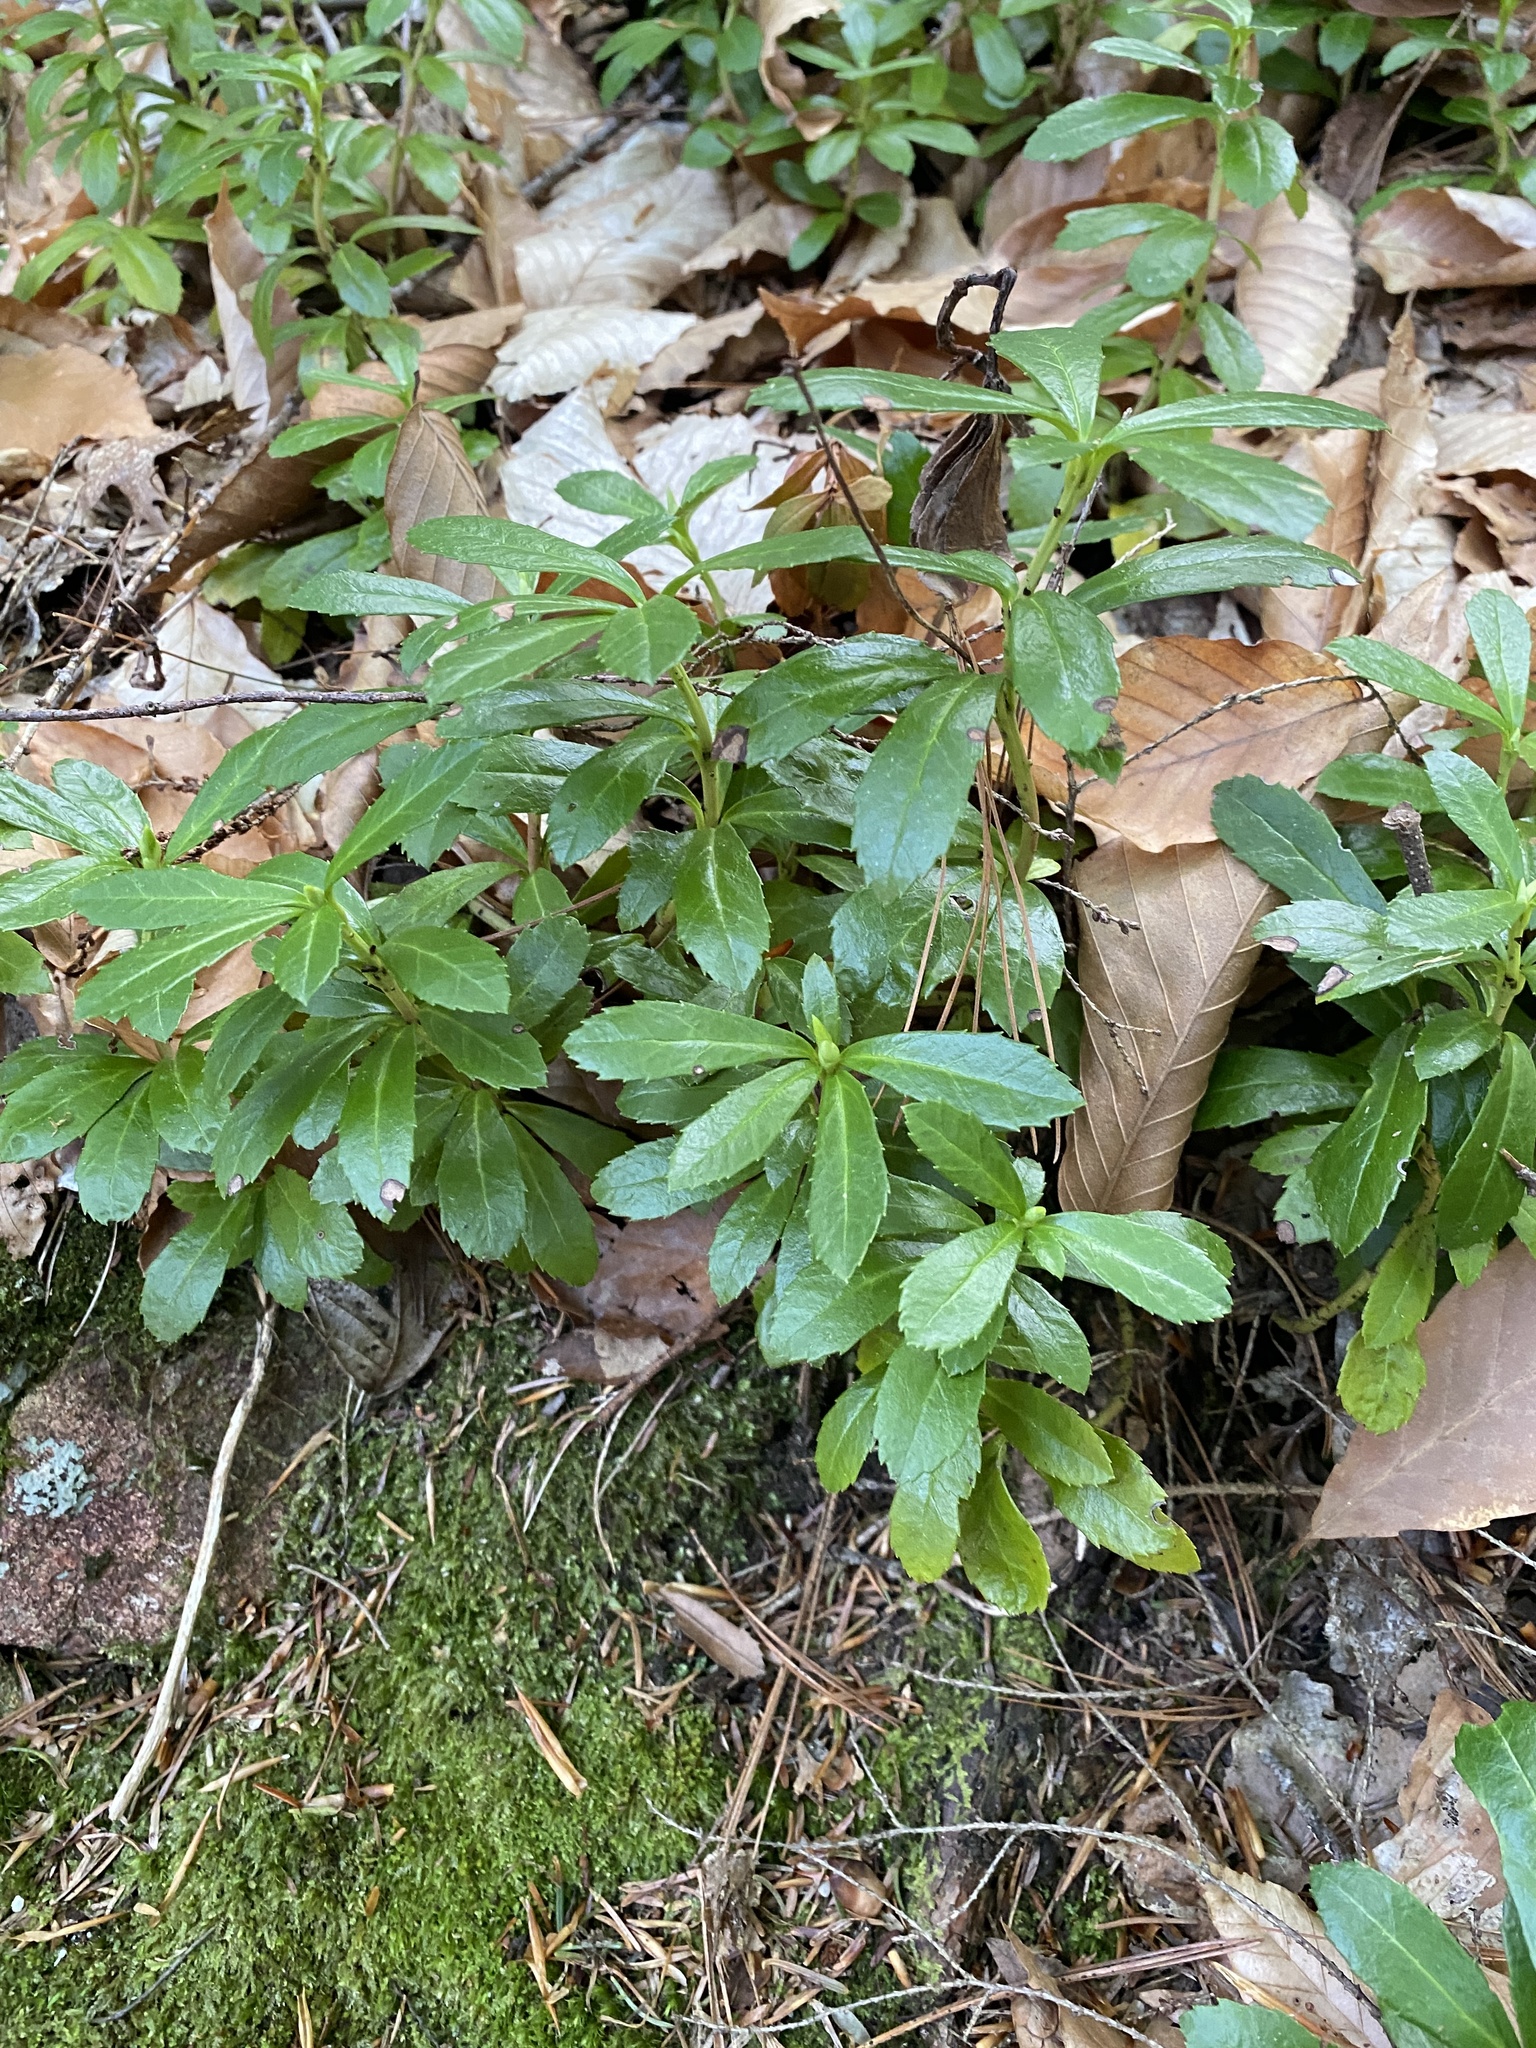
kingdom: Plantae
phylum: Tracheophyta
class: Magnoliopsida
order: Ericales
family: Ericaceae
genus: Chimaphila
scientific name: Chimaphila umbellata
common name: Pipsissewa
